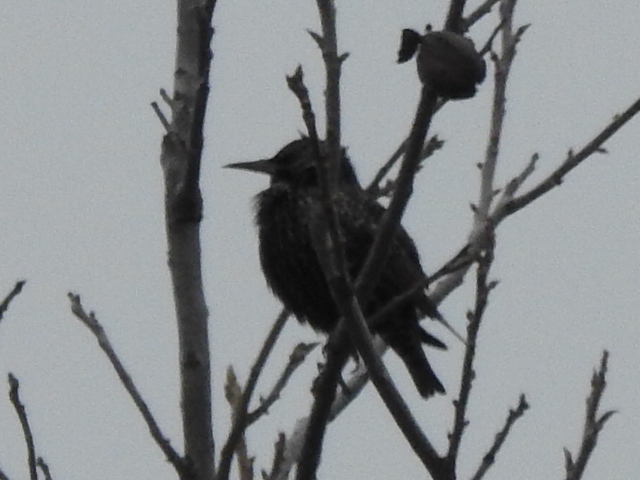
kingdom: Animalia
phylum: Chordata
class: Aves
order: Passeriformes
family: Sturnidae
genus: Sturnus
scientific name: Sturnus vulgaris
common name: Common starling
